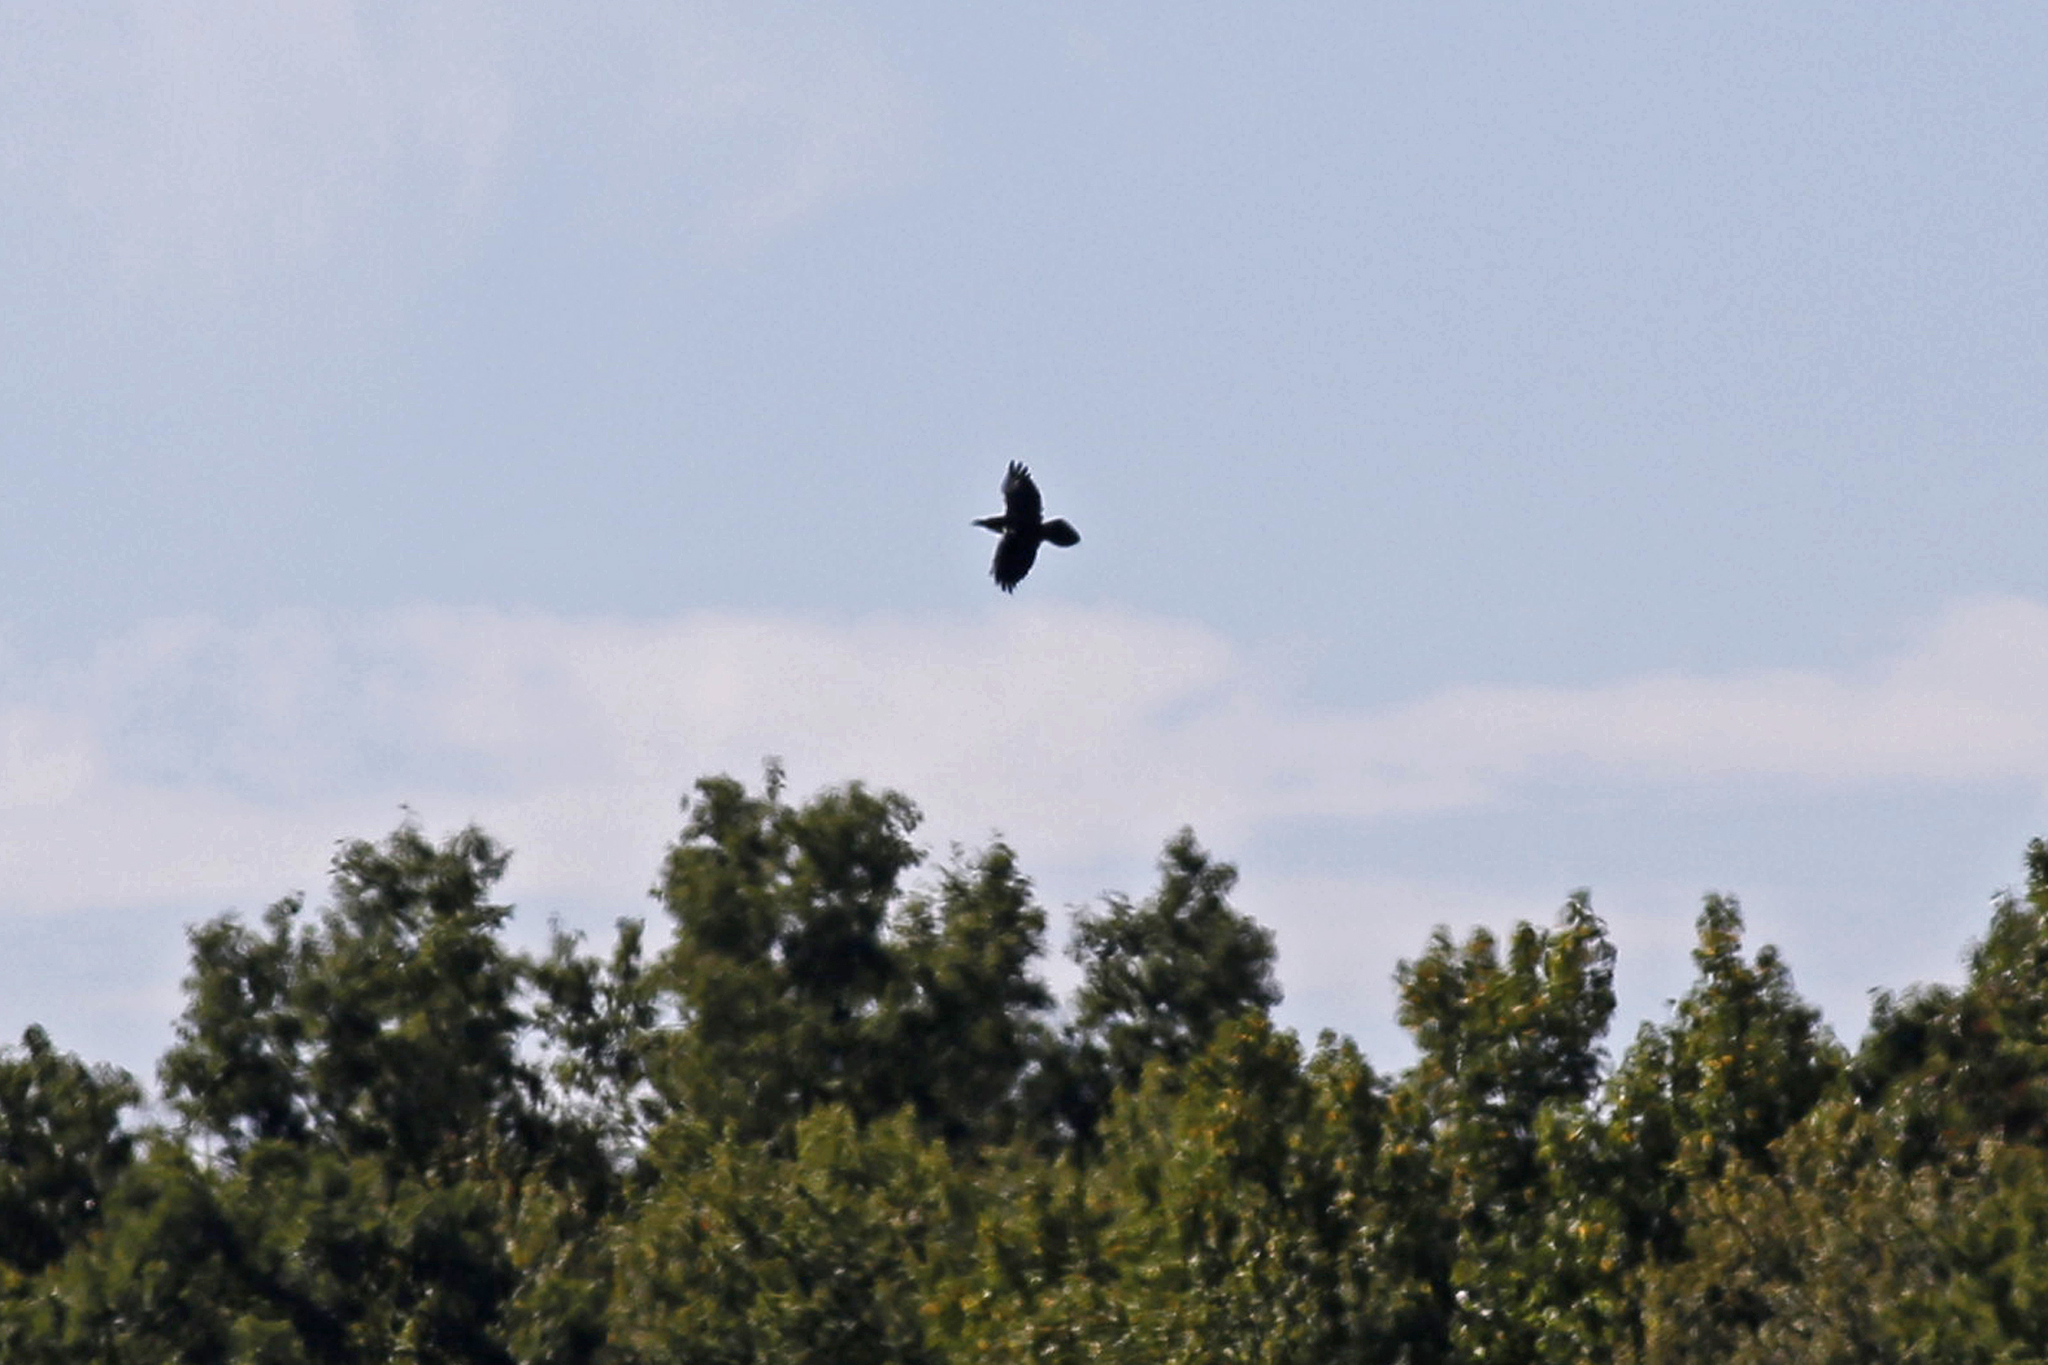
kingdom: Animalia
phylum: Chordata
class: Aves
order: Passeriformes
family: Corvidae
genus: Corvus
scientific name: Corvus corax
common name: Common raven
